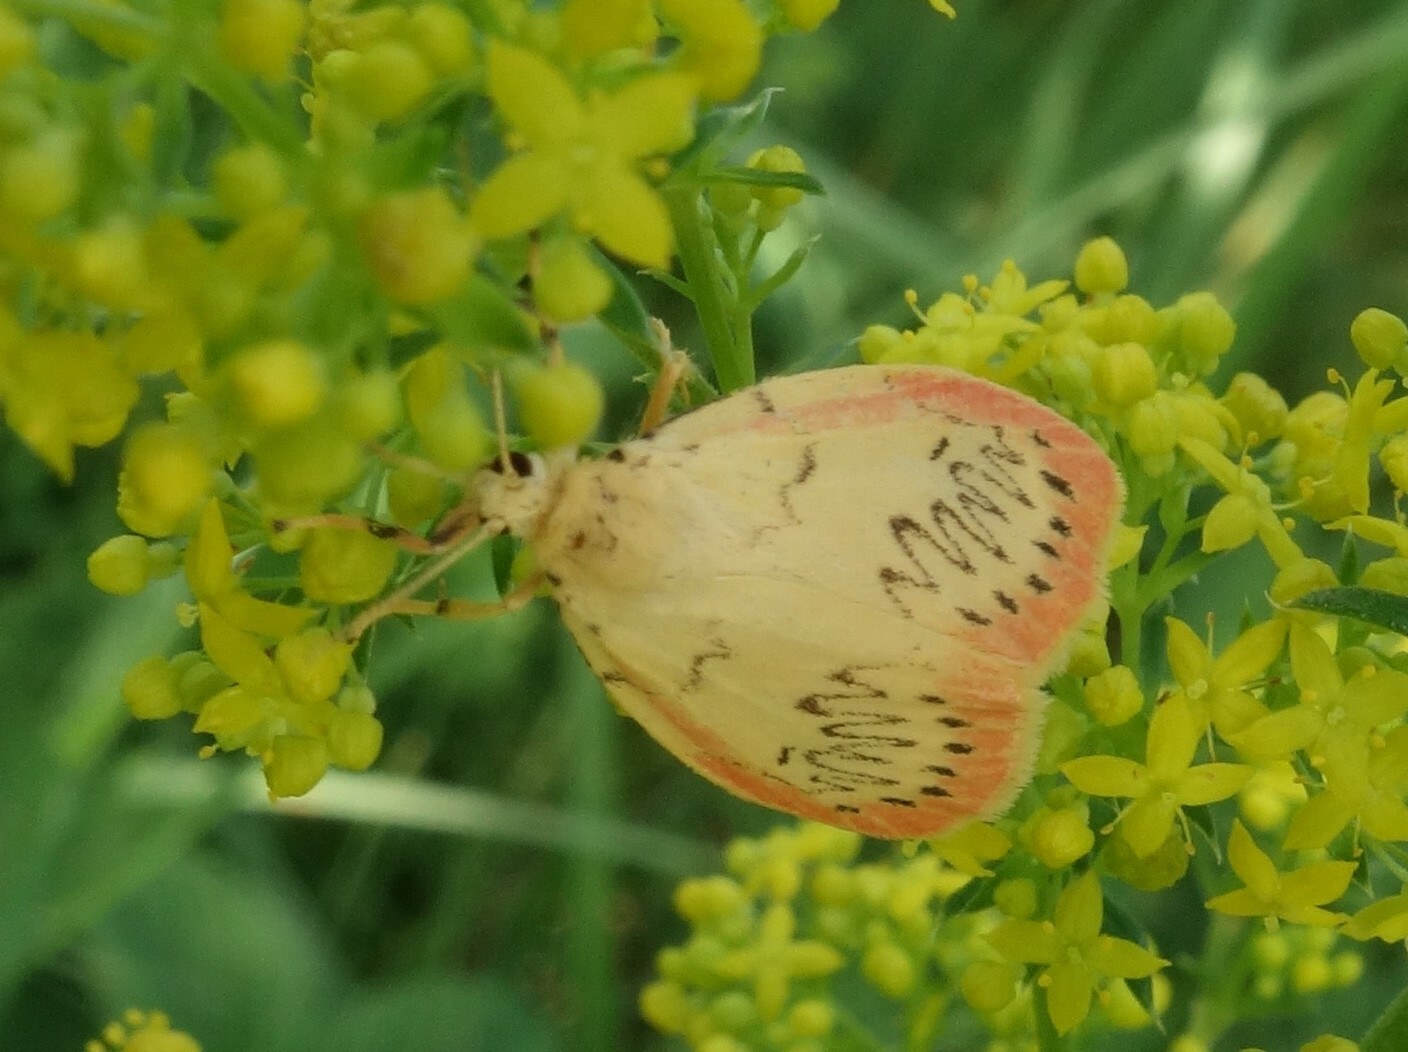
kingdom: Animalia
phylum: Arthropoda
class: Insecta
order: Lepidoptera
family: Erebidae
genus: Miltochrista
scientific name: Miltochrista miniata
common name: Rosy footman
